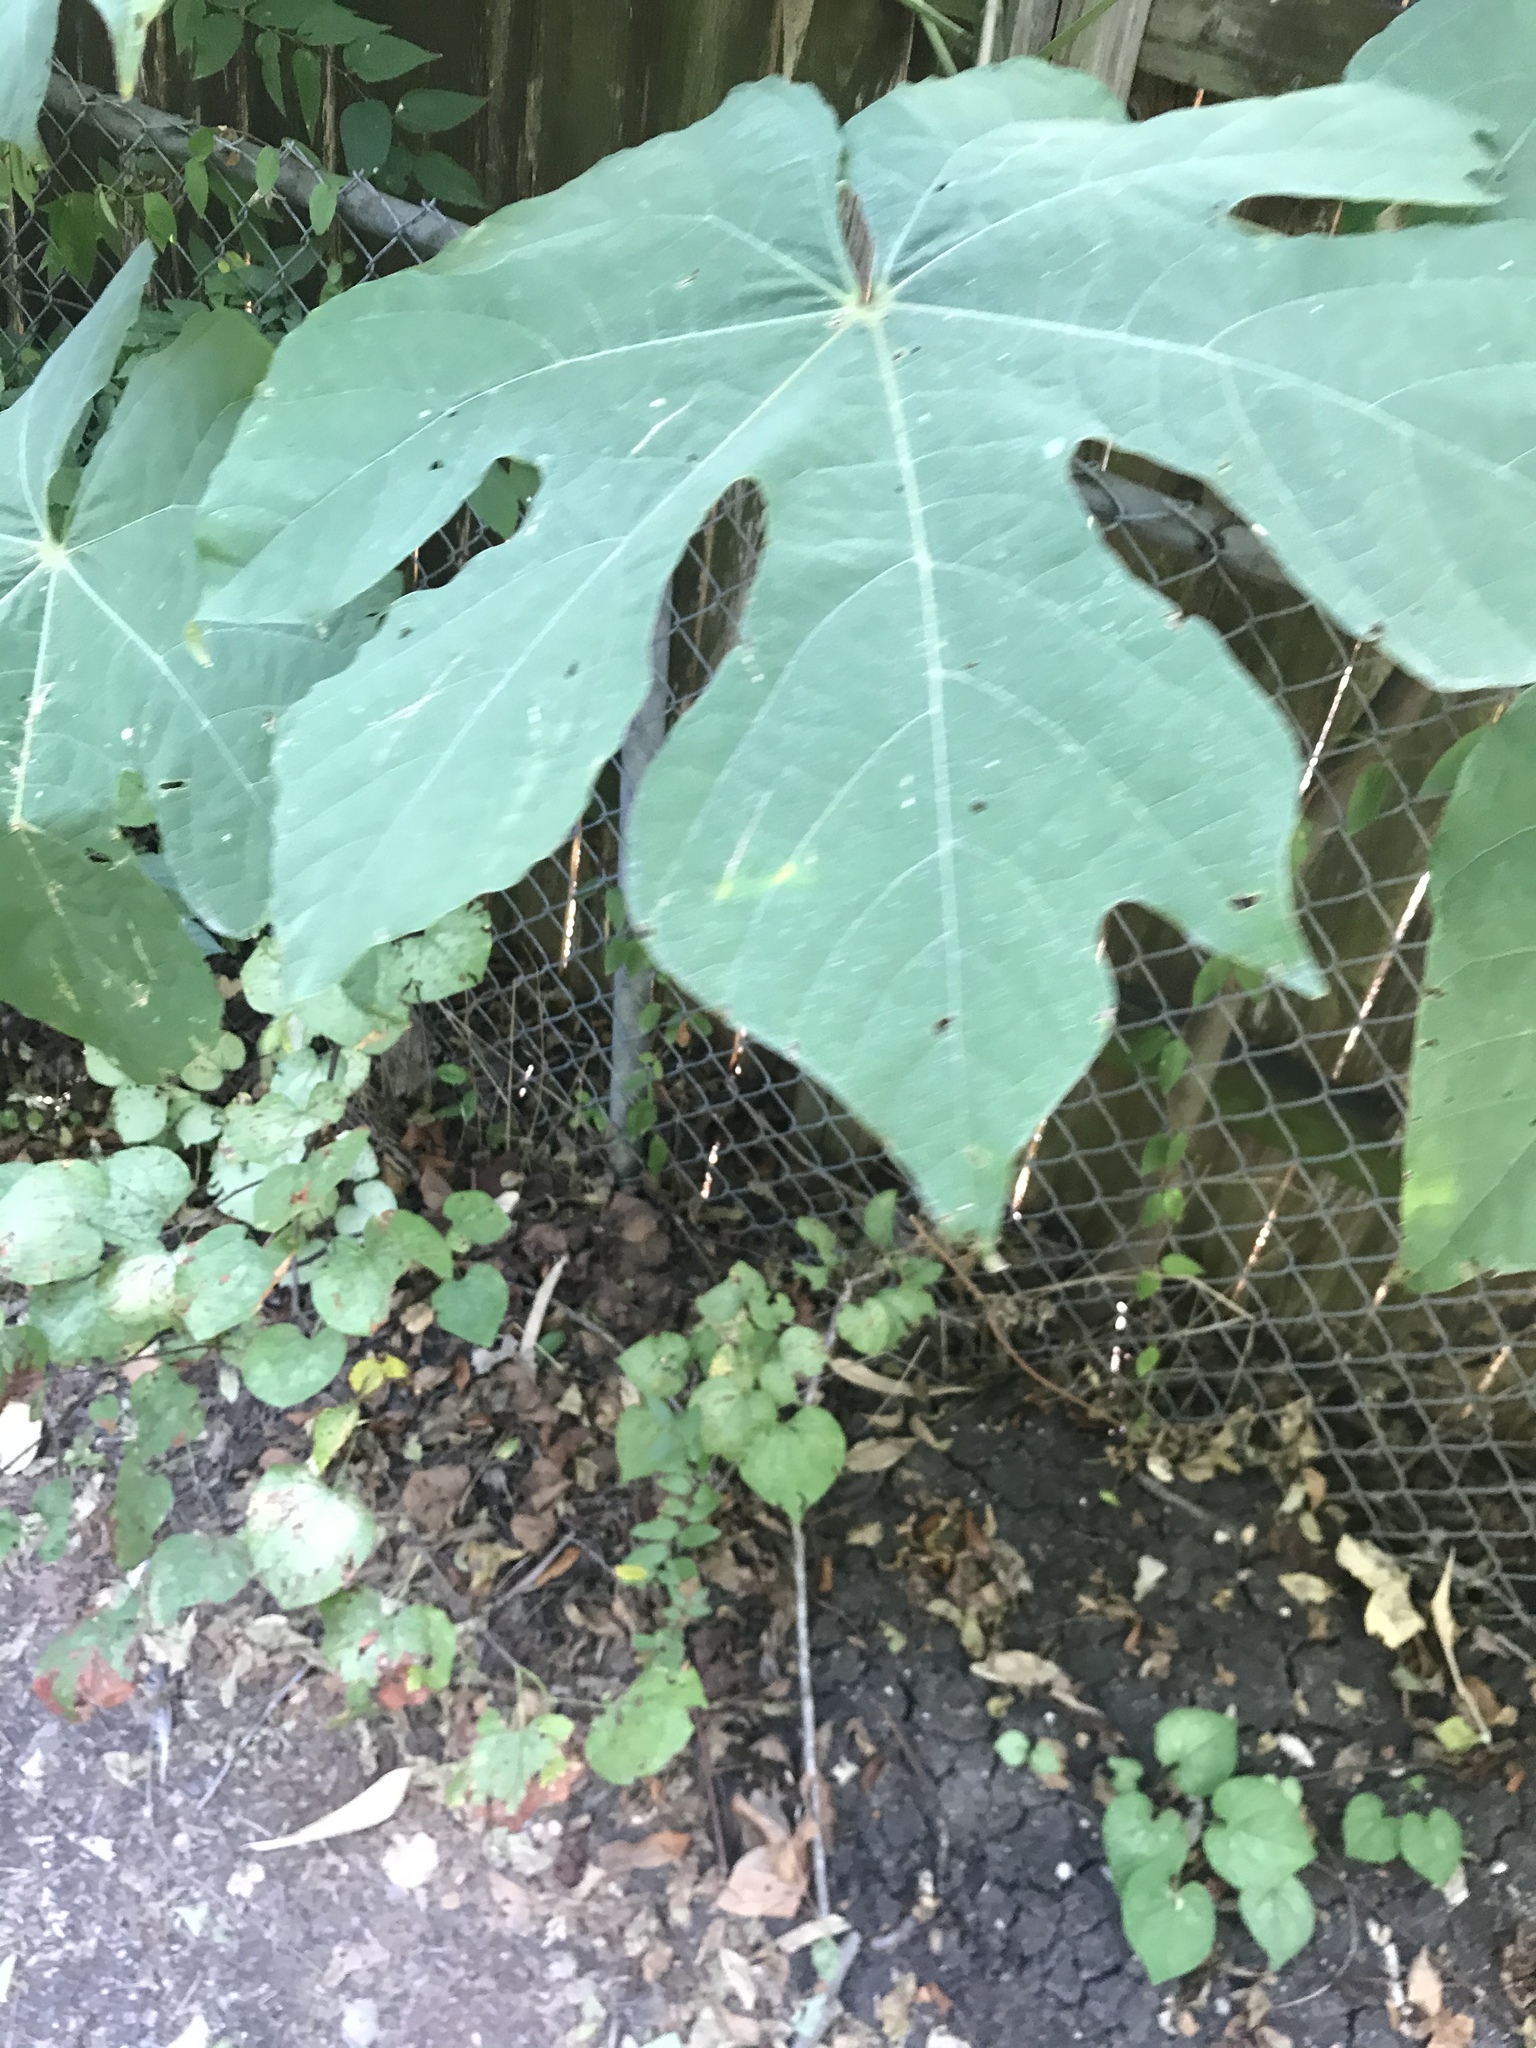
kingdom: Plantae
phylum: Tracheophyta
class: Magnoliopsida
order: Rosales
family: Moraceae
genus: Ficus
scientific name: Ficus carica
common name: Fig
